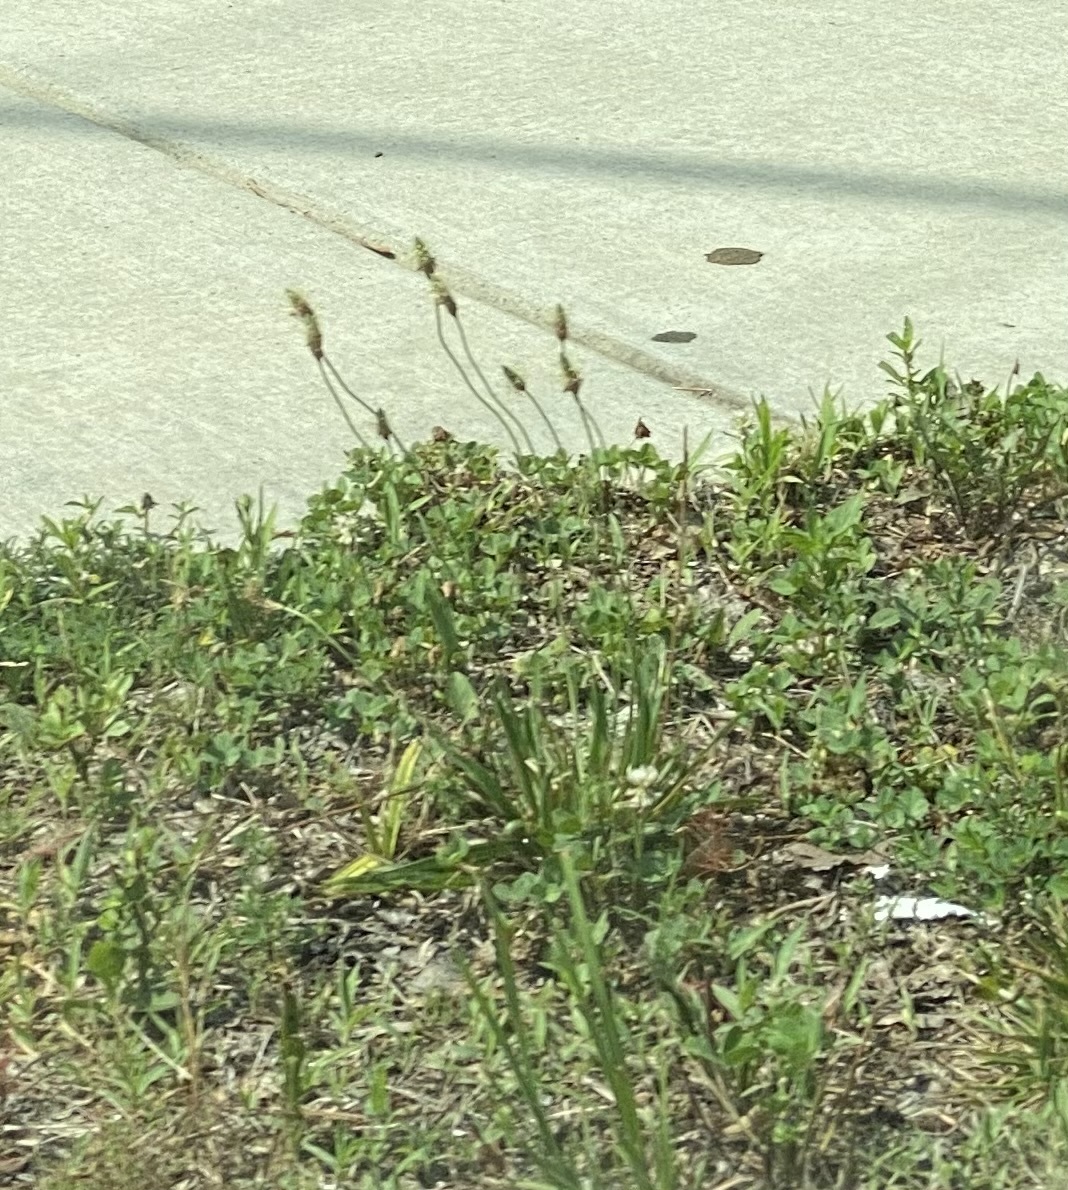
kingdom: Plantae
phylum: Tracheophyta
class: Magnoliopsida
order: Lamiales
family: Plantaginaceae
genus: Plantago
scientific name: Plantago lanceolata
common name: Ribwort plantain
